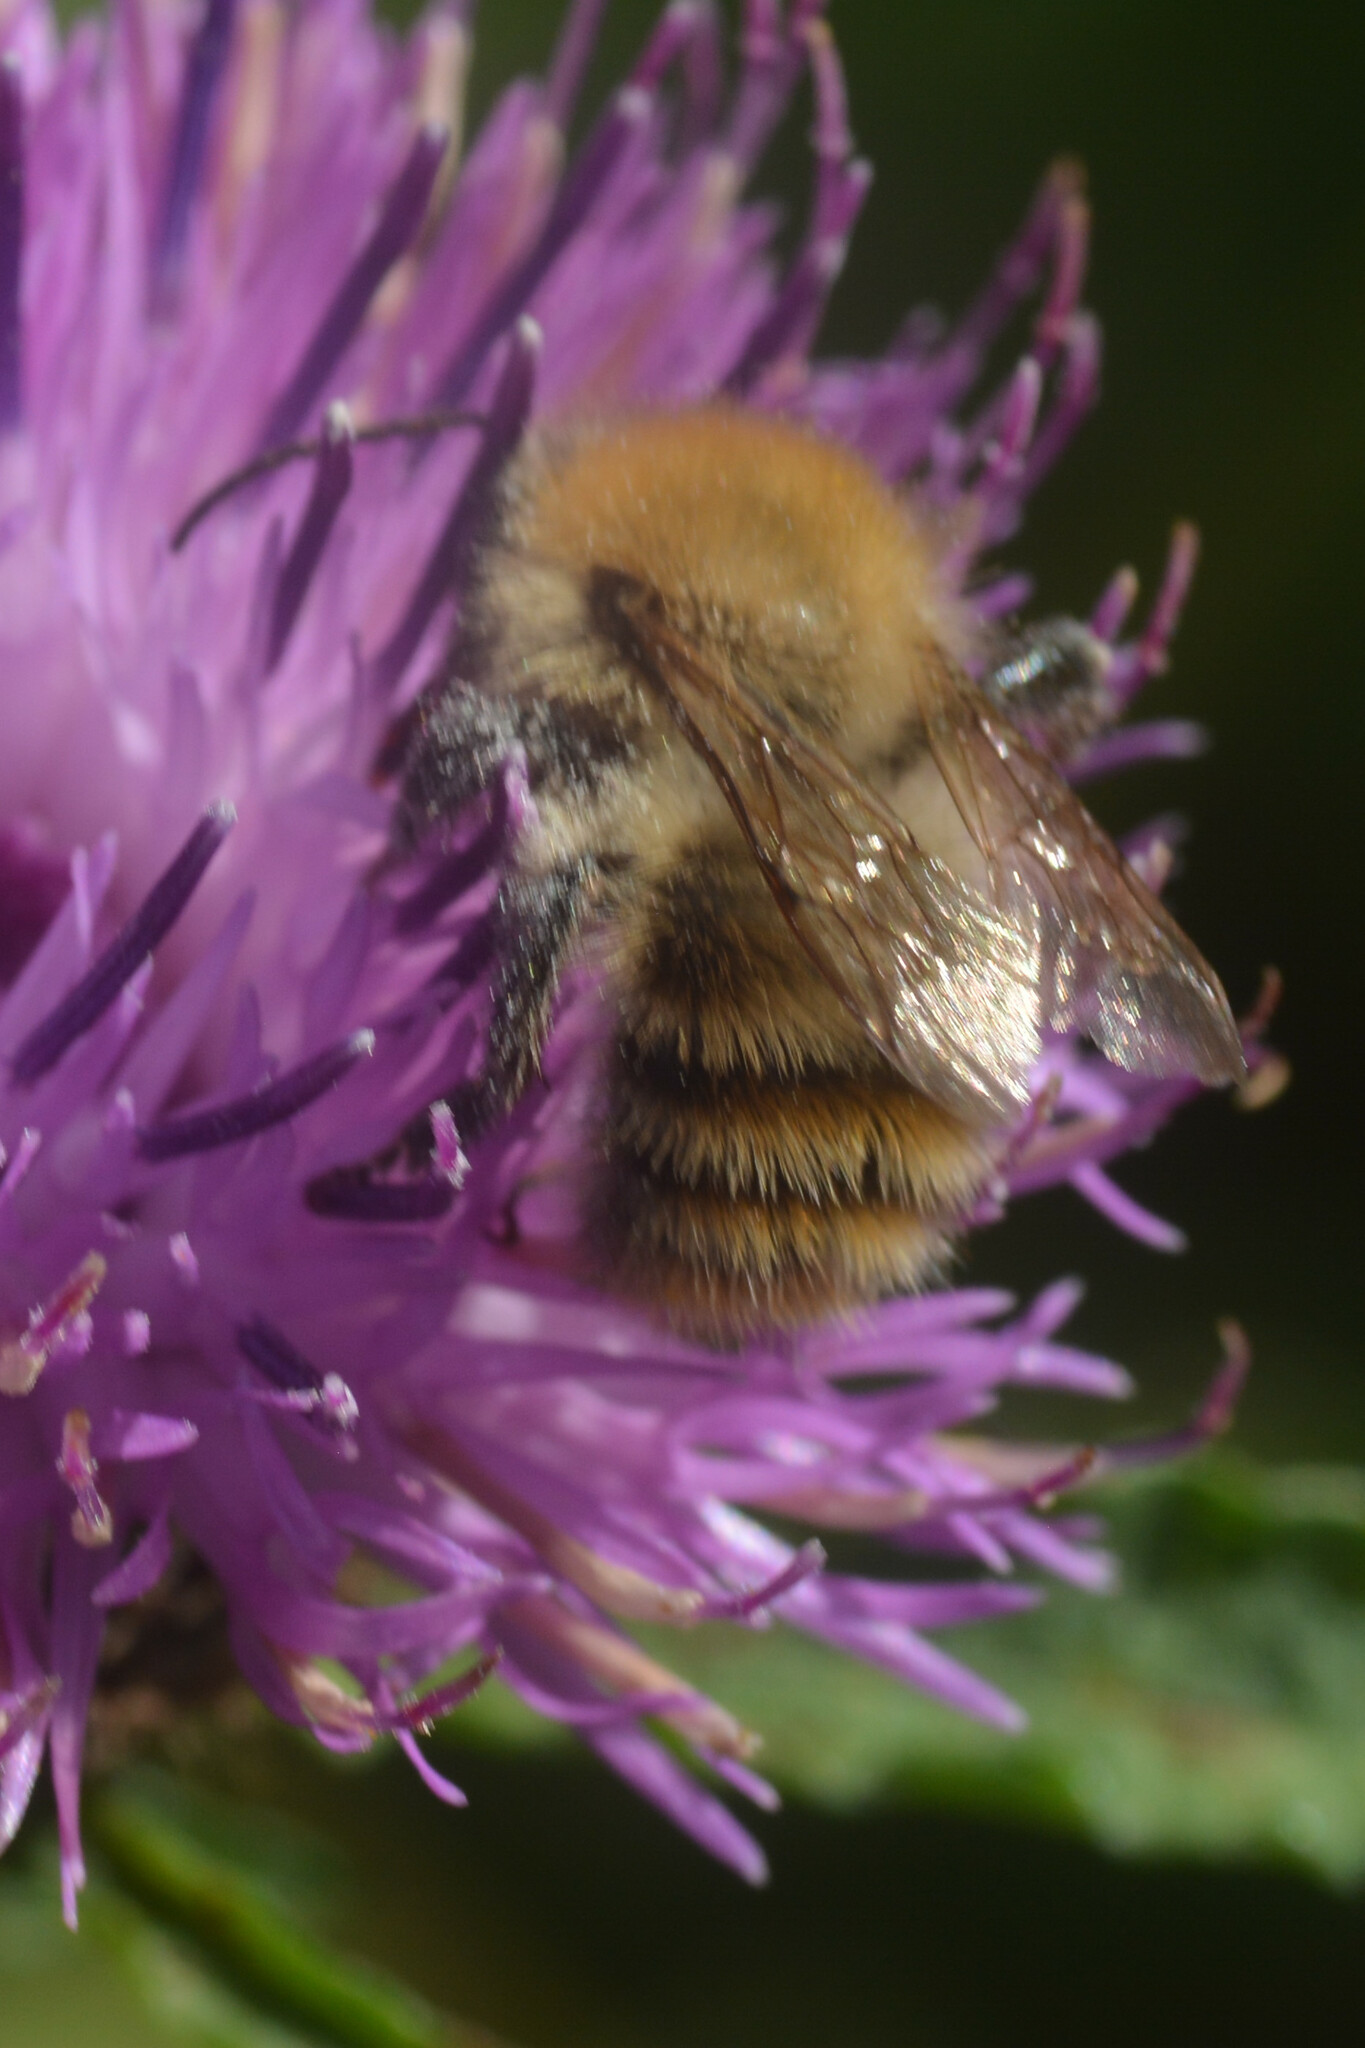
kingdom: Animalia
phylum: Arthropoda
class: Insecta
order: Hymenoptera
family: Apidae
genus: Bombus
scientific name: Bombus pascuorum
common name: Common carder bee
